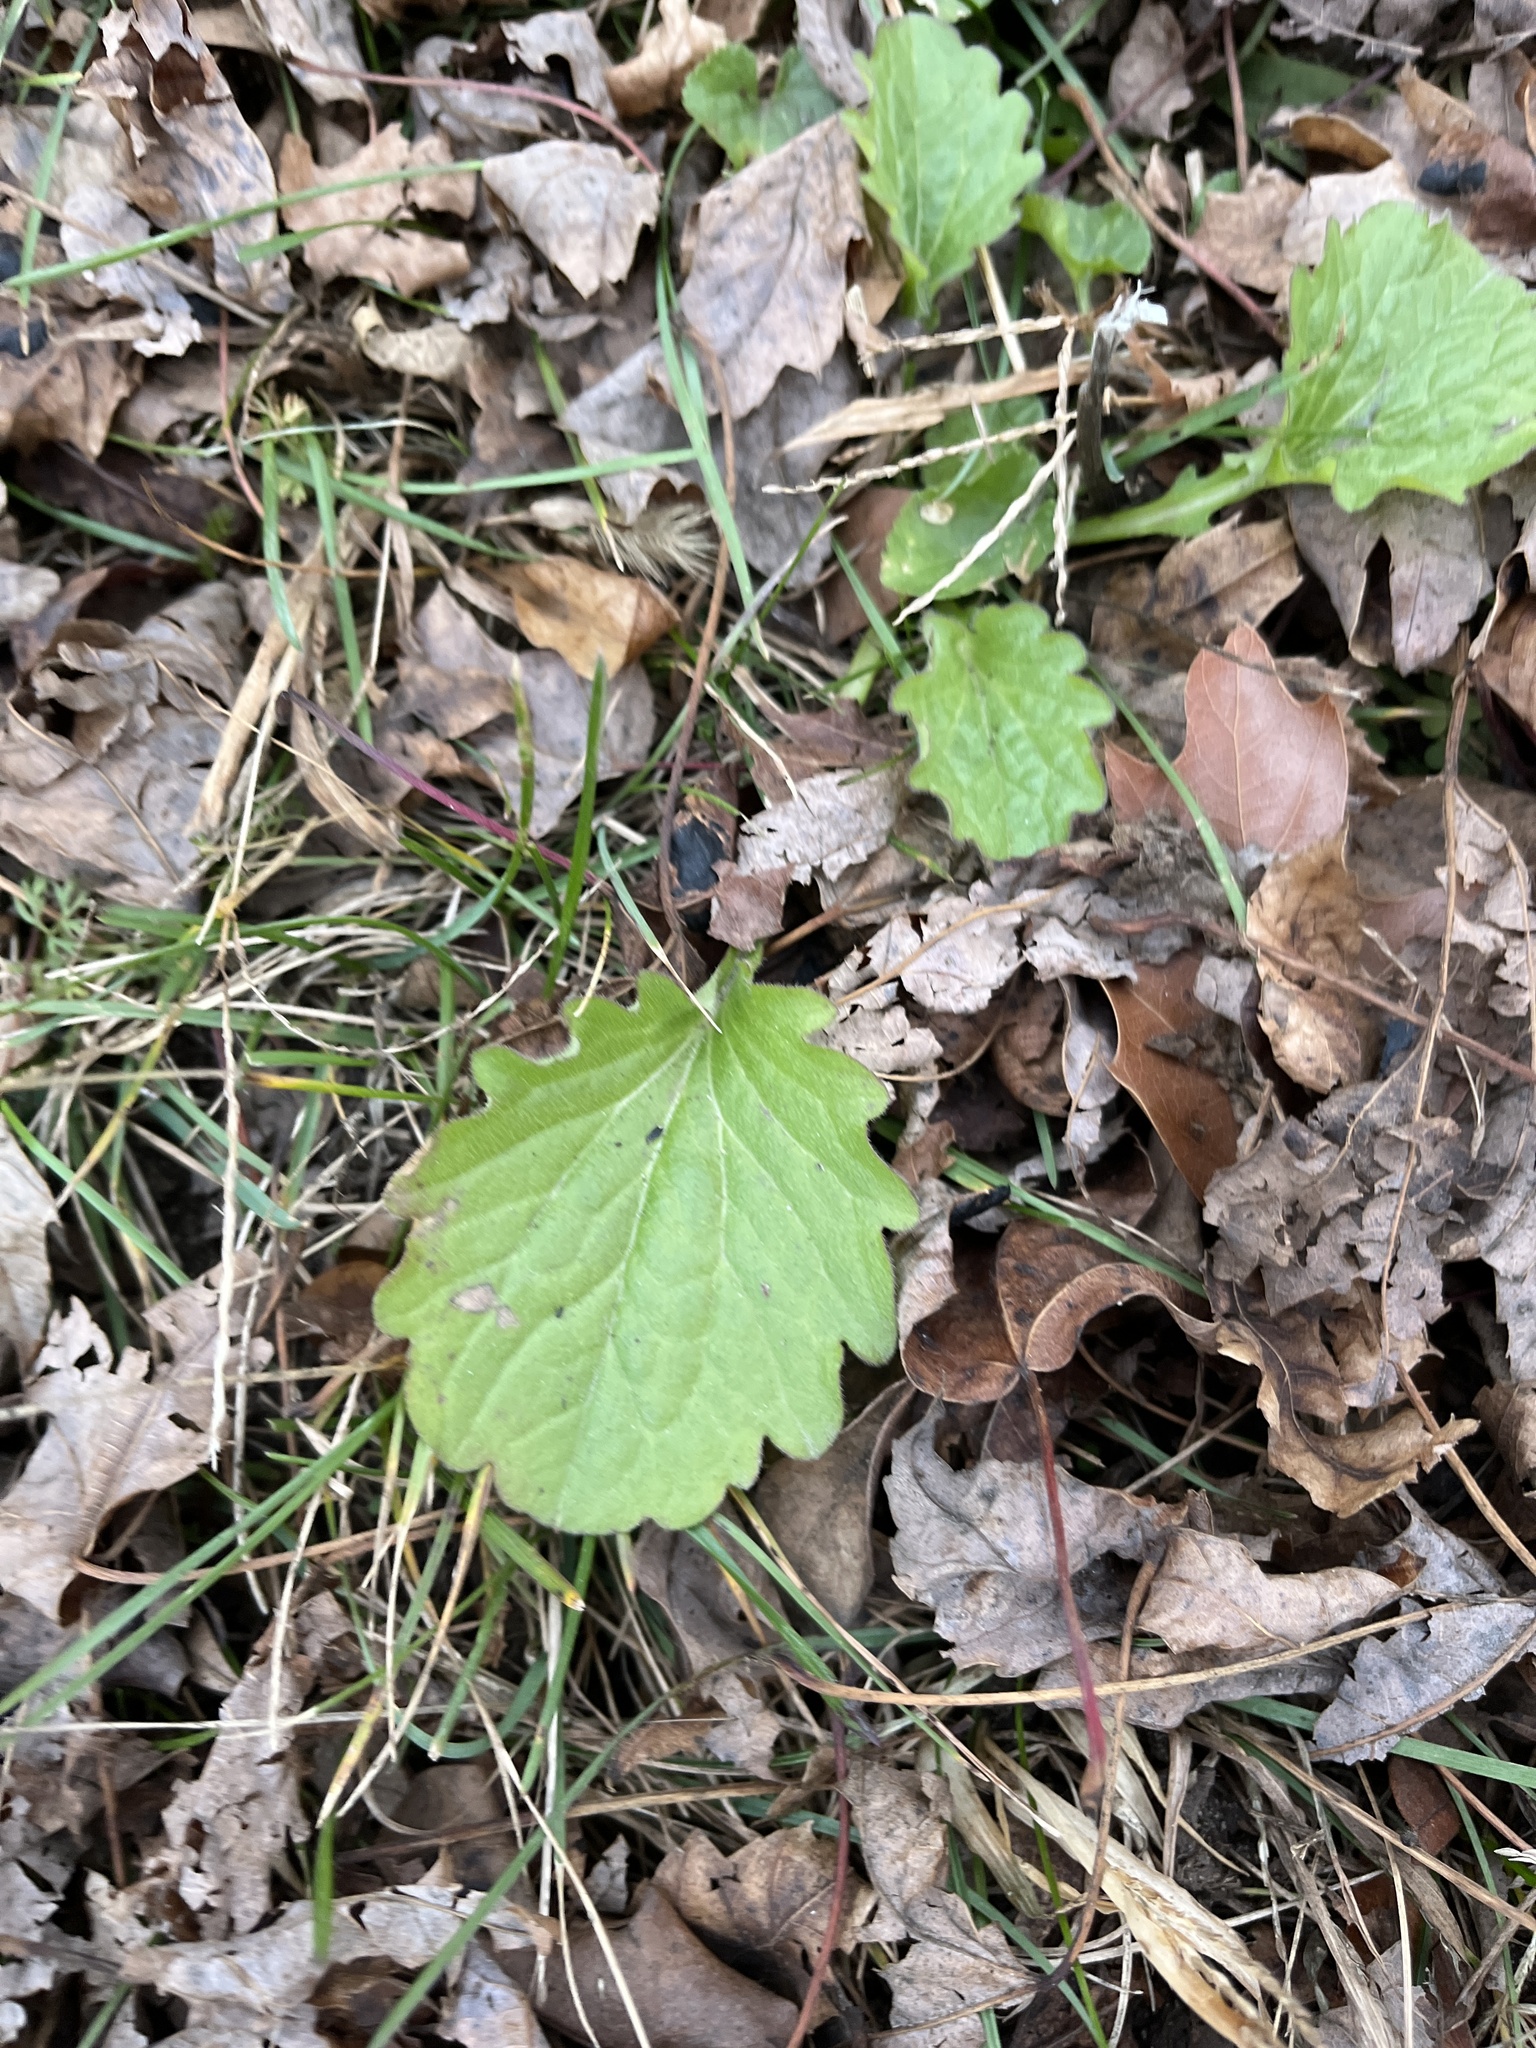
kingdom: Plantae
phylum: Tracheophyta
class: Magnoliopsida
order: Asterales
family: Asteraceae
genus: Erigeron
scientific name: Erigeron annuus
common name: Tall fleabane
